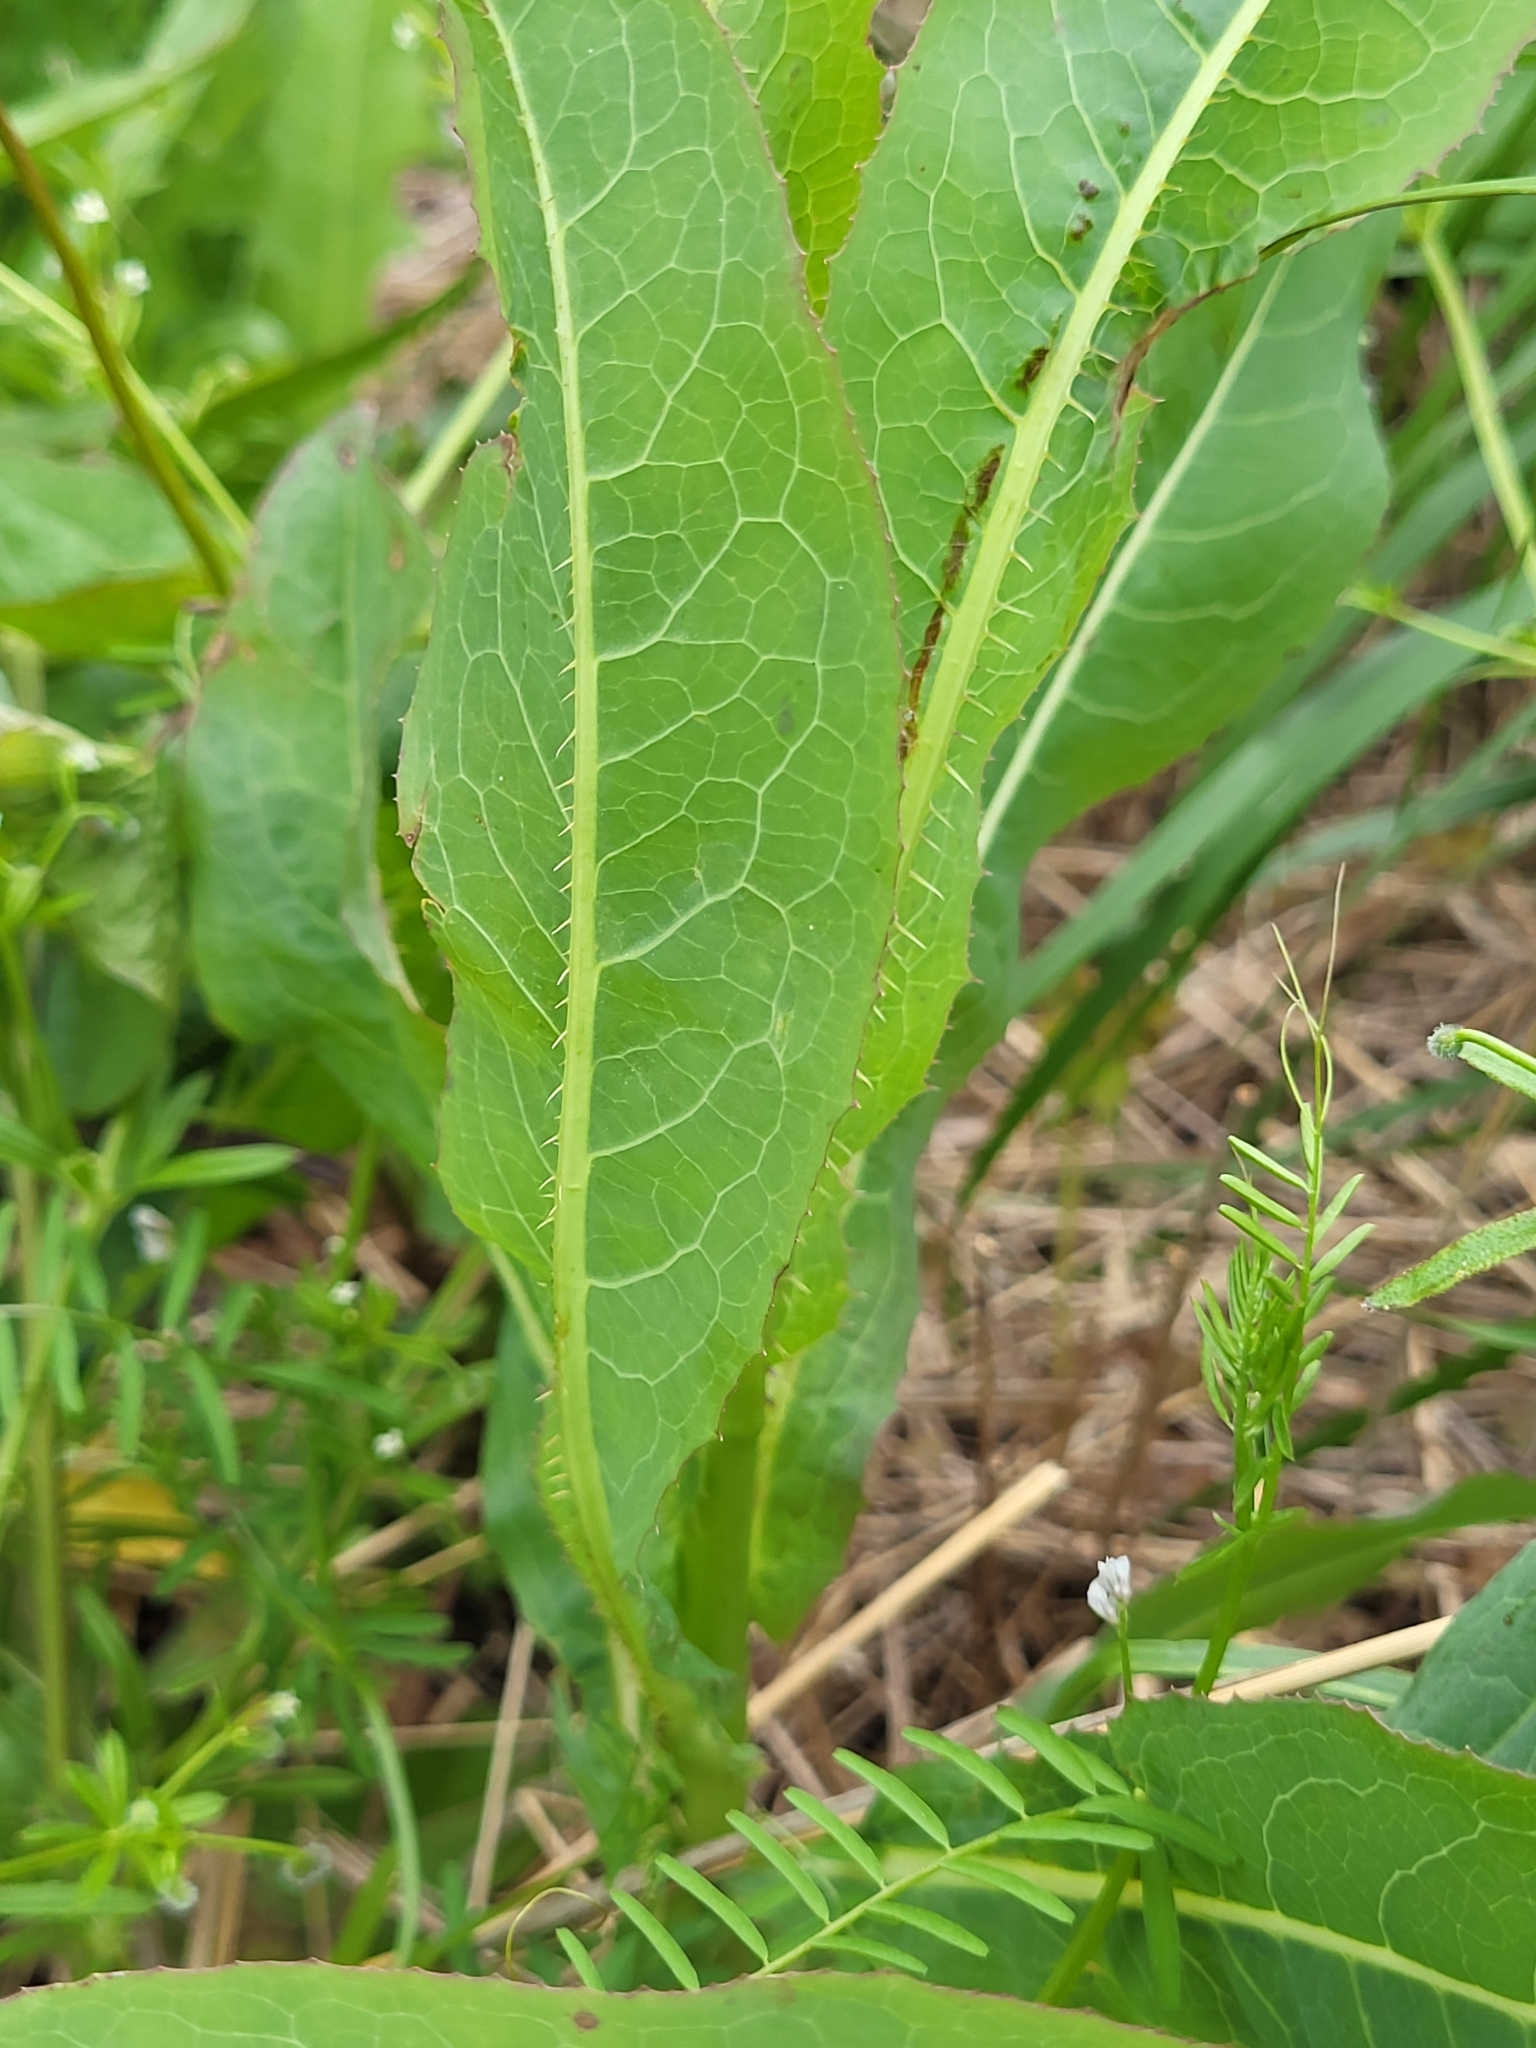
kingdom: Plantae
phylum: Tracheophyta
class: Magnoliopsida
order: Asterales
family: Asteraceae
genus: Lactuca
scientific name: Lactuca serriola
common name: Prickly lettuce
